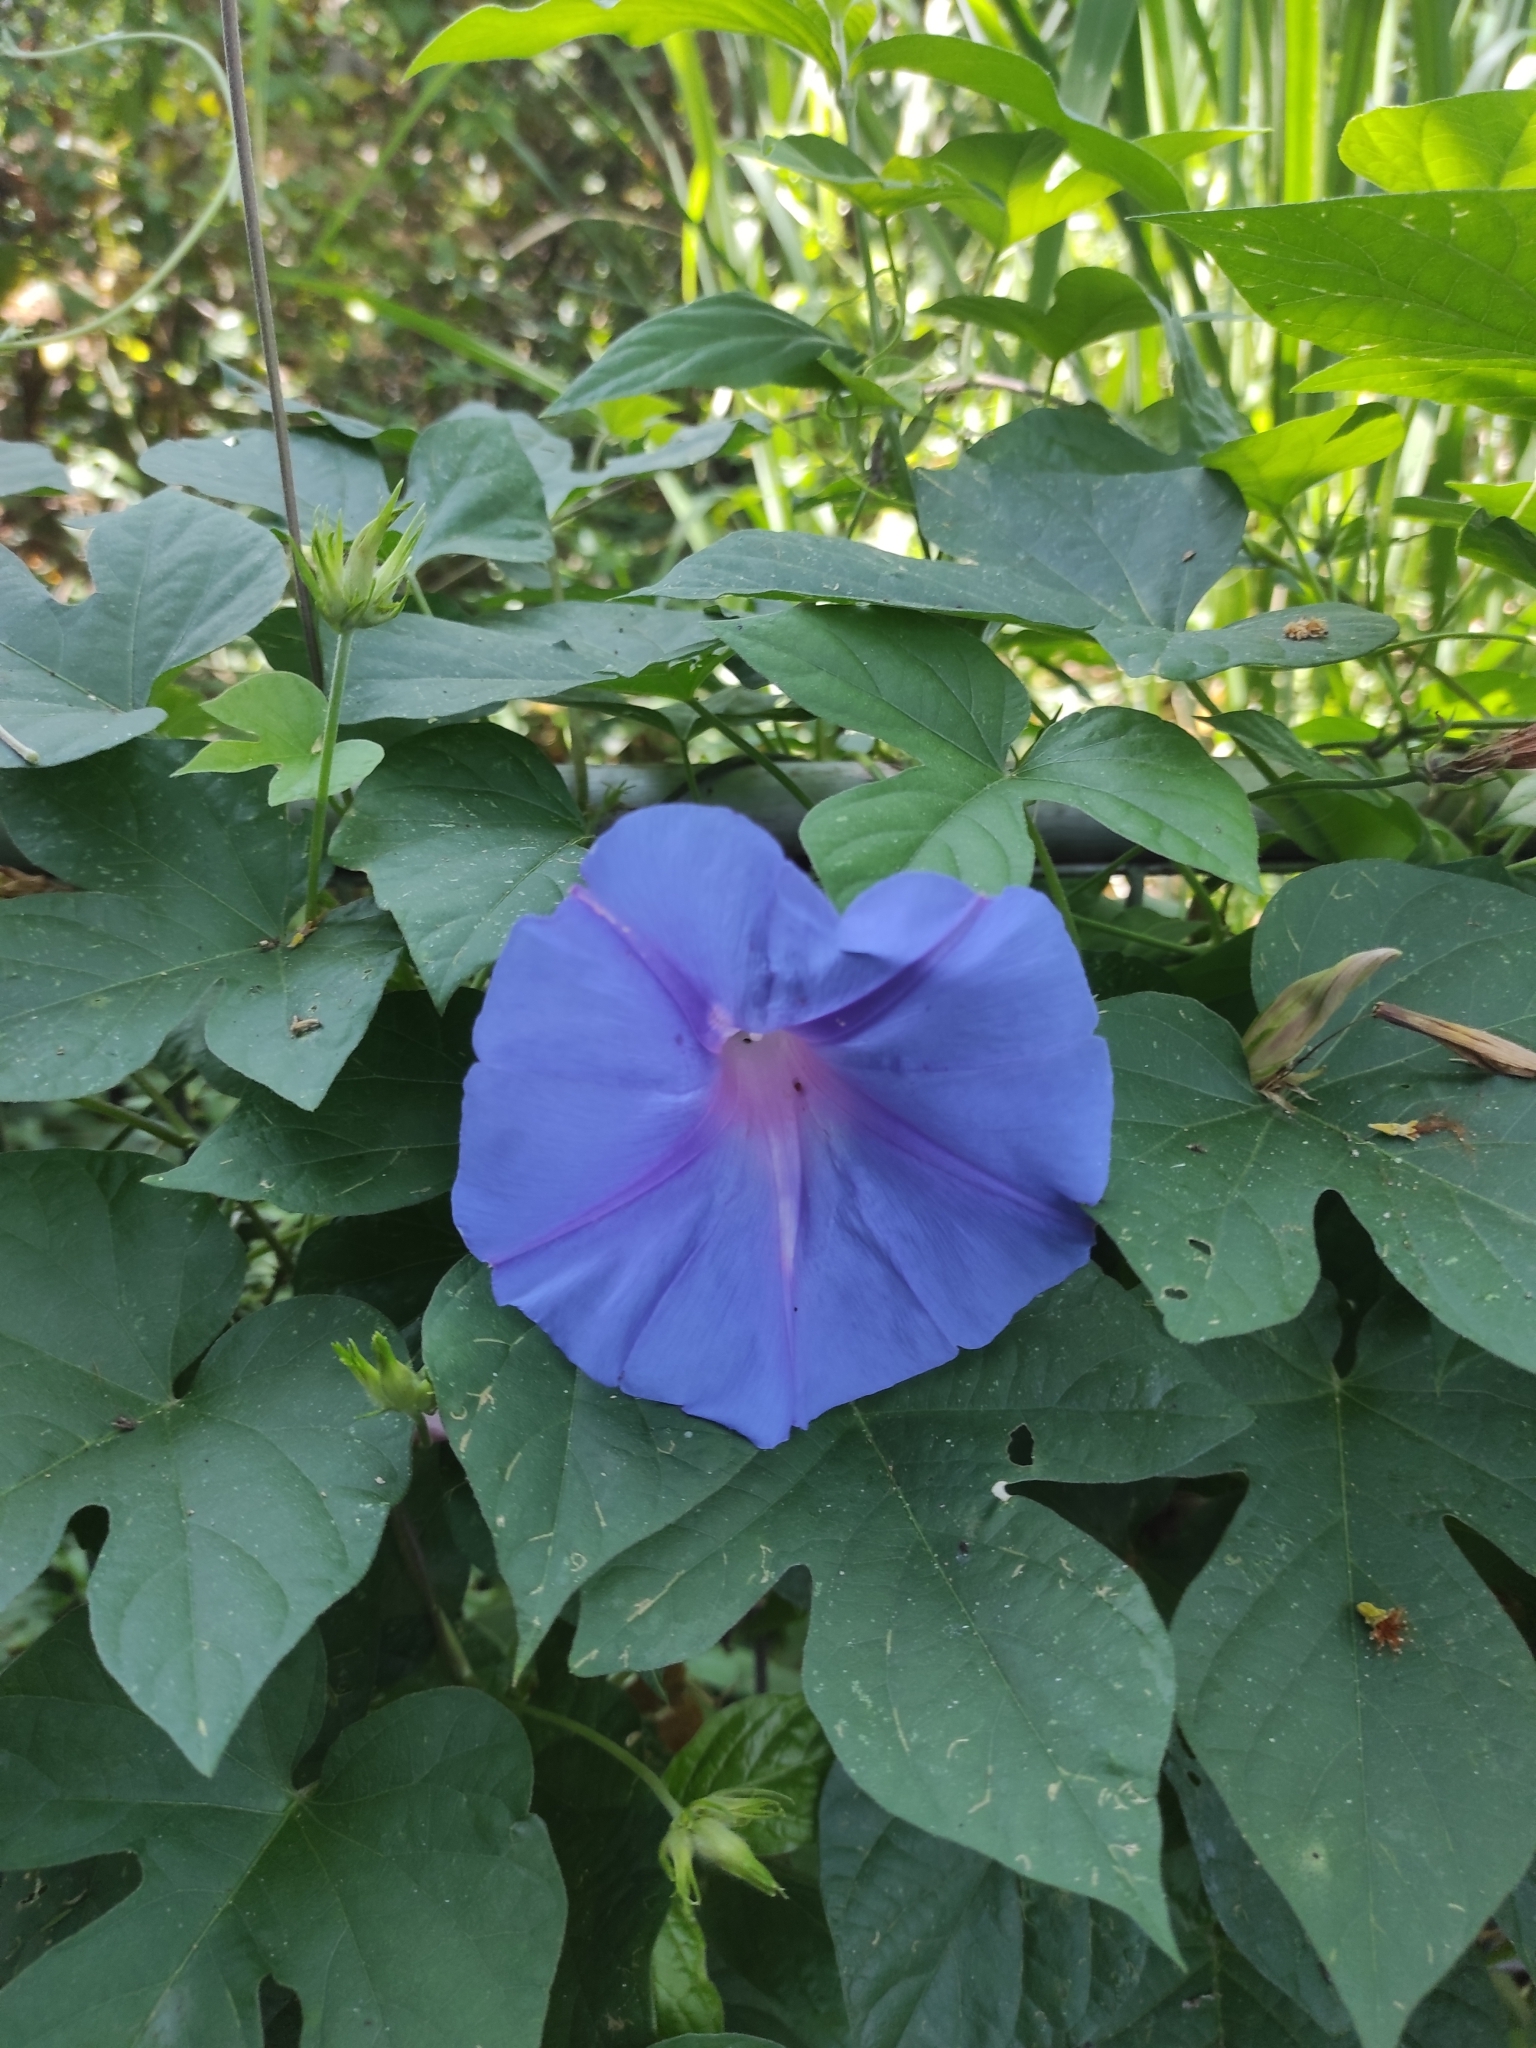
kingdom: Plantae
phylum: Tracheophyta
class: Magnoliopsida
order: Solanales
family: Convolvulaceae
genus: Ipomoea
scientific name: Ipomoea indica
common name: Blue dawnflower
